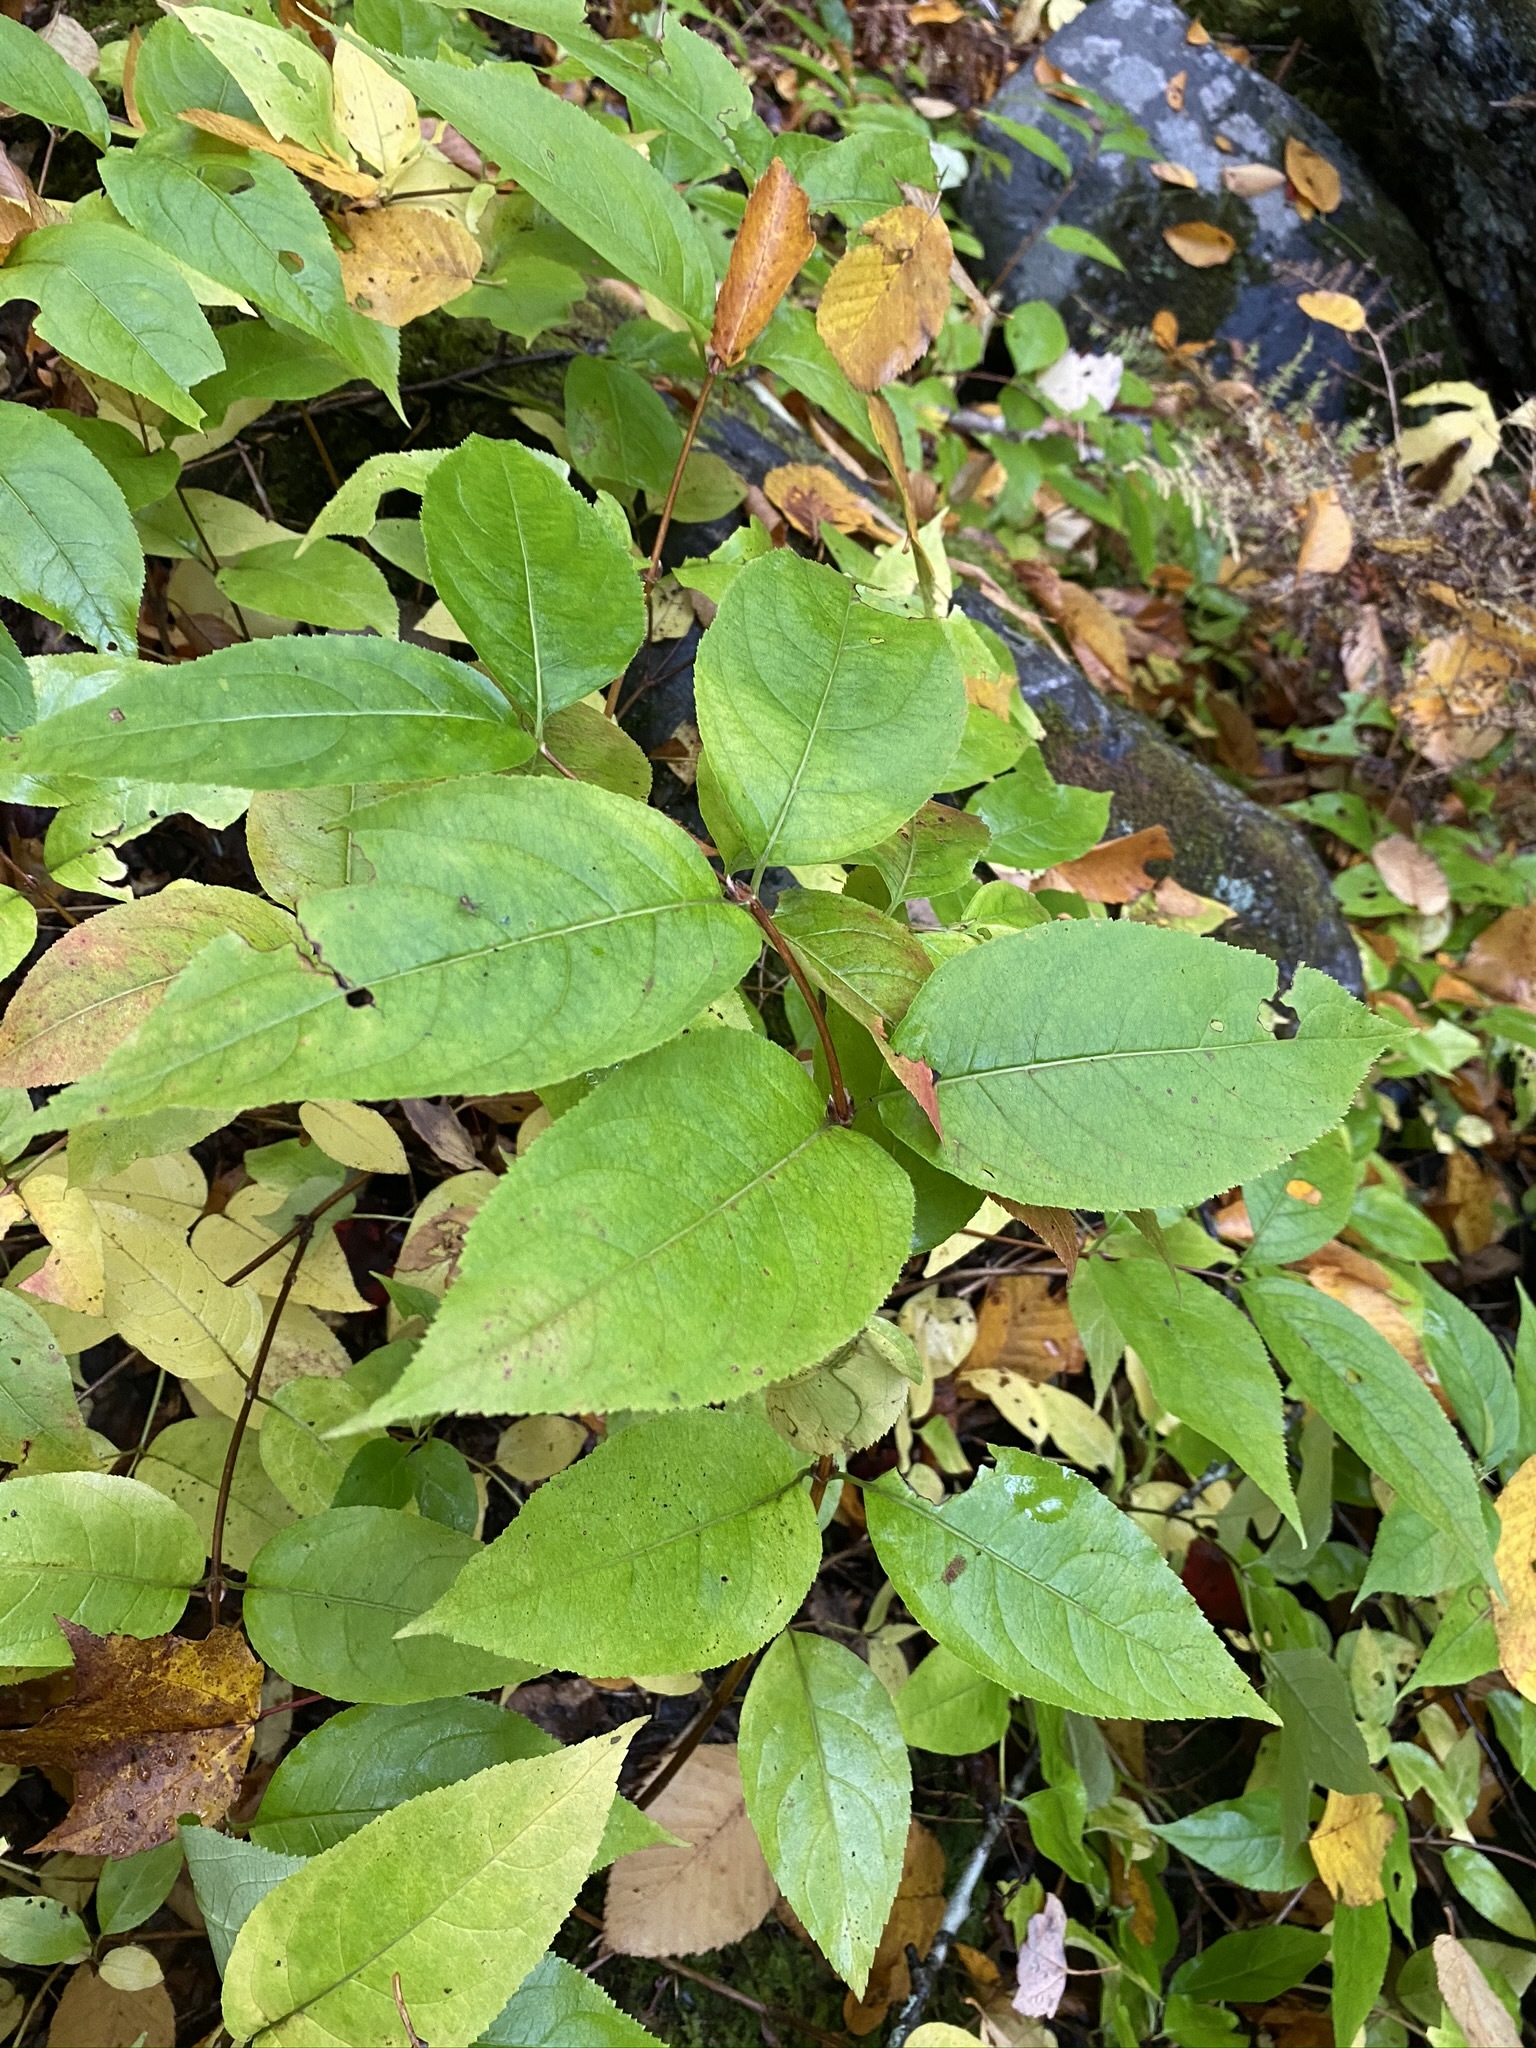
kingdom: Plantae
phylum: Tracheophyta
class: Magnoliopsida
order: Dipsacales
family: Caprifoliaceae
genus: Diervilla
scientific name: Diervilla lonicera
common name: Bush-honeysuckle
